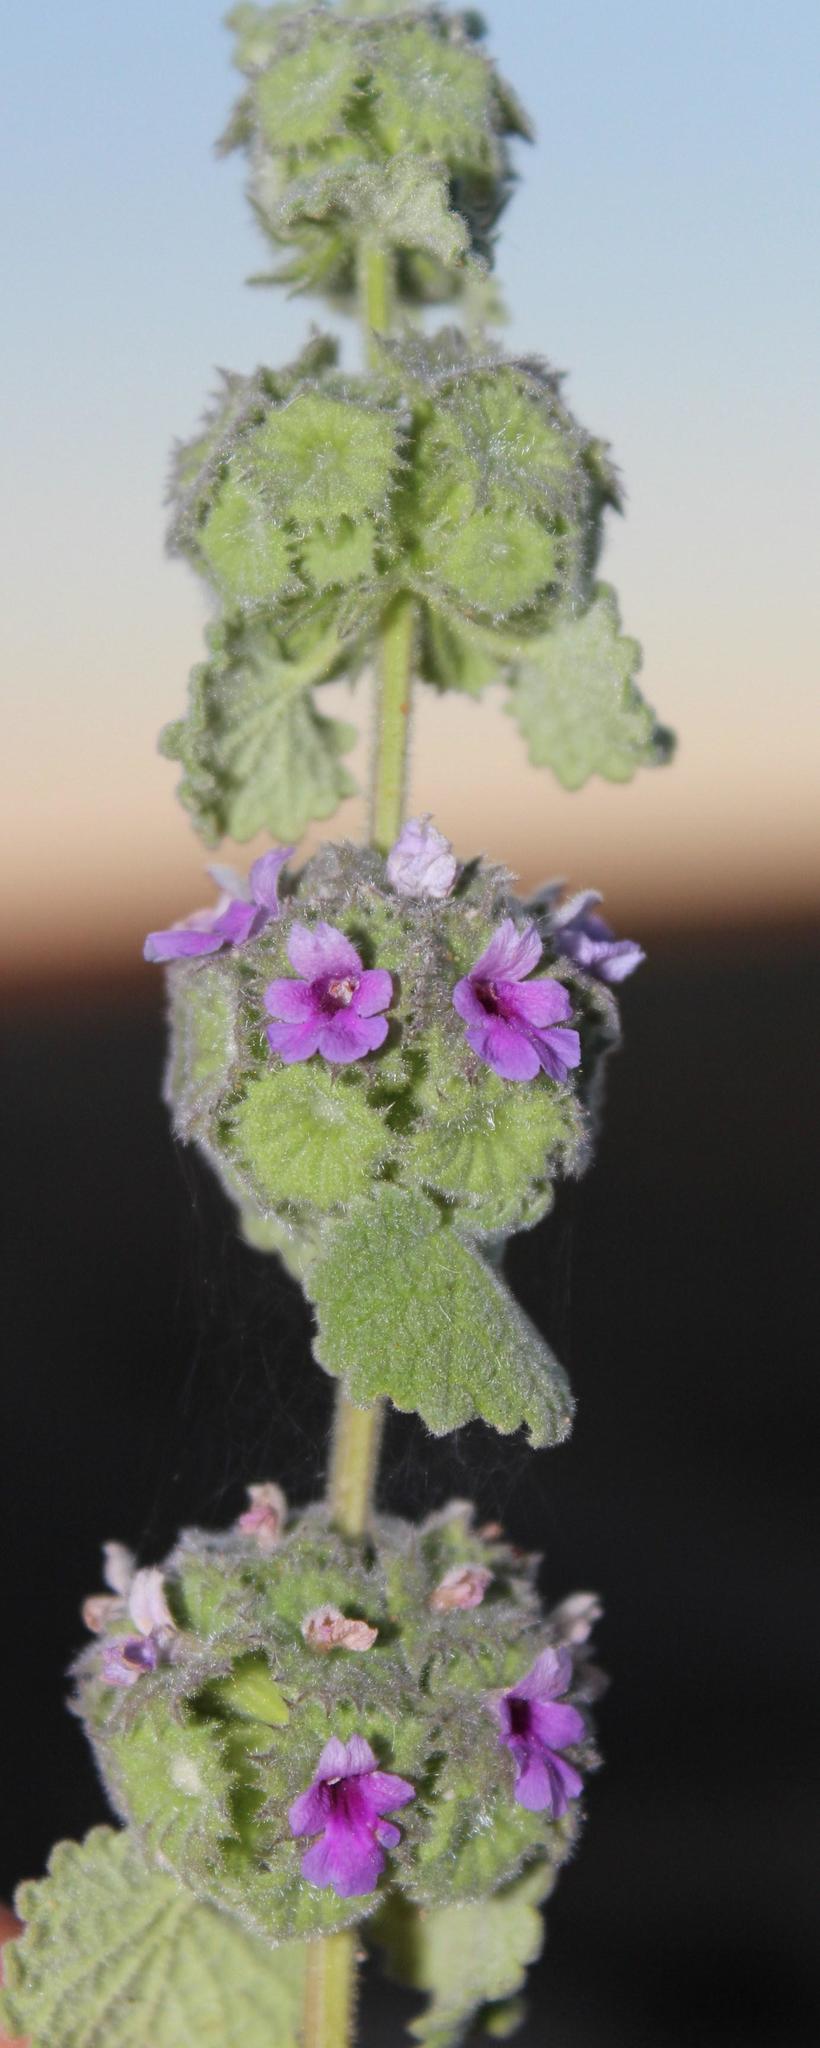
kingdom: Plantae
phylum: Tracheophyta
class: Magnoliopsida
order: Lamiales
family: Lamiaceae
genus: Pseudodictamnus
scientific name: Pseudodictamnus africanus
